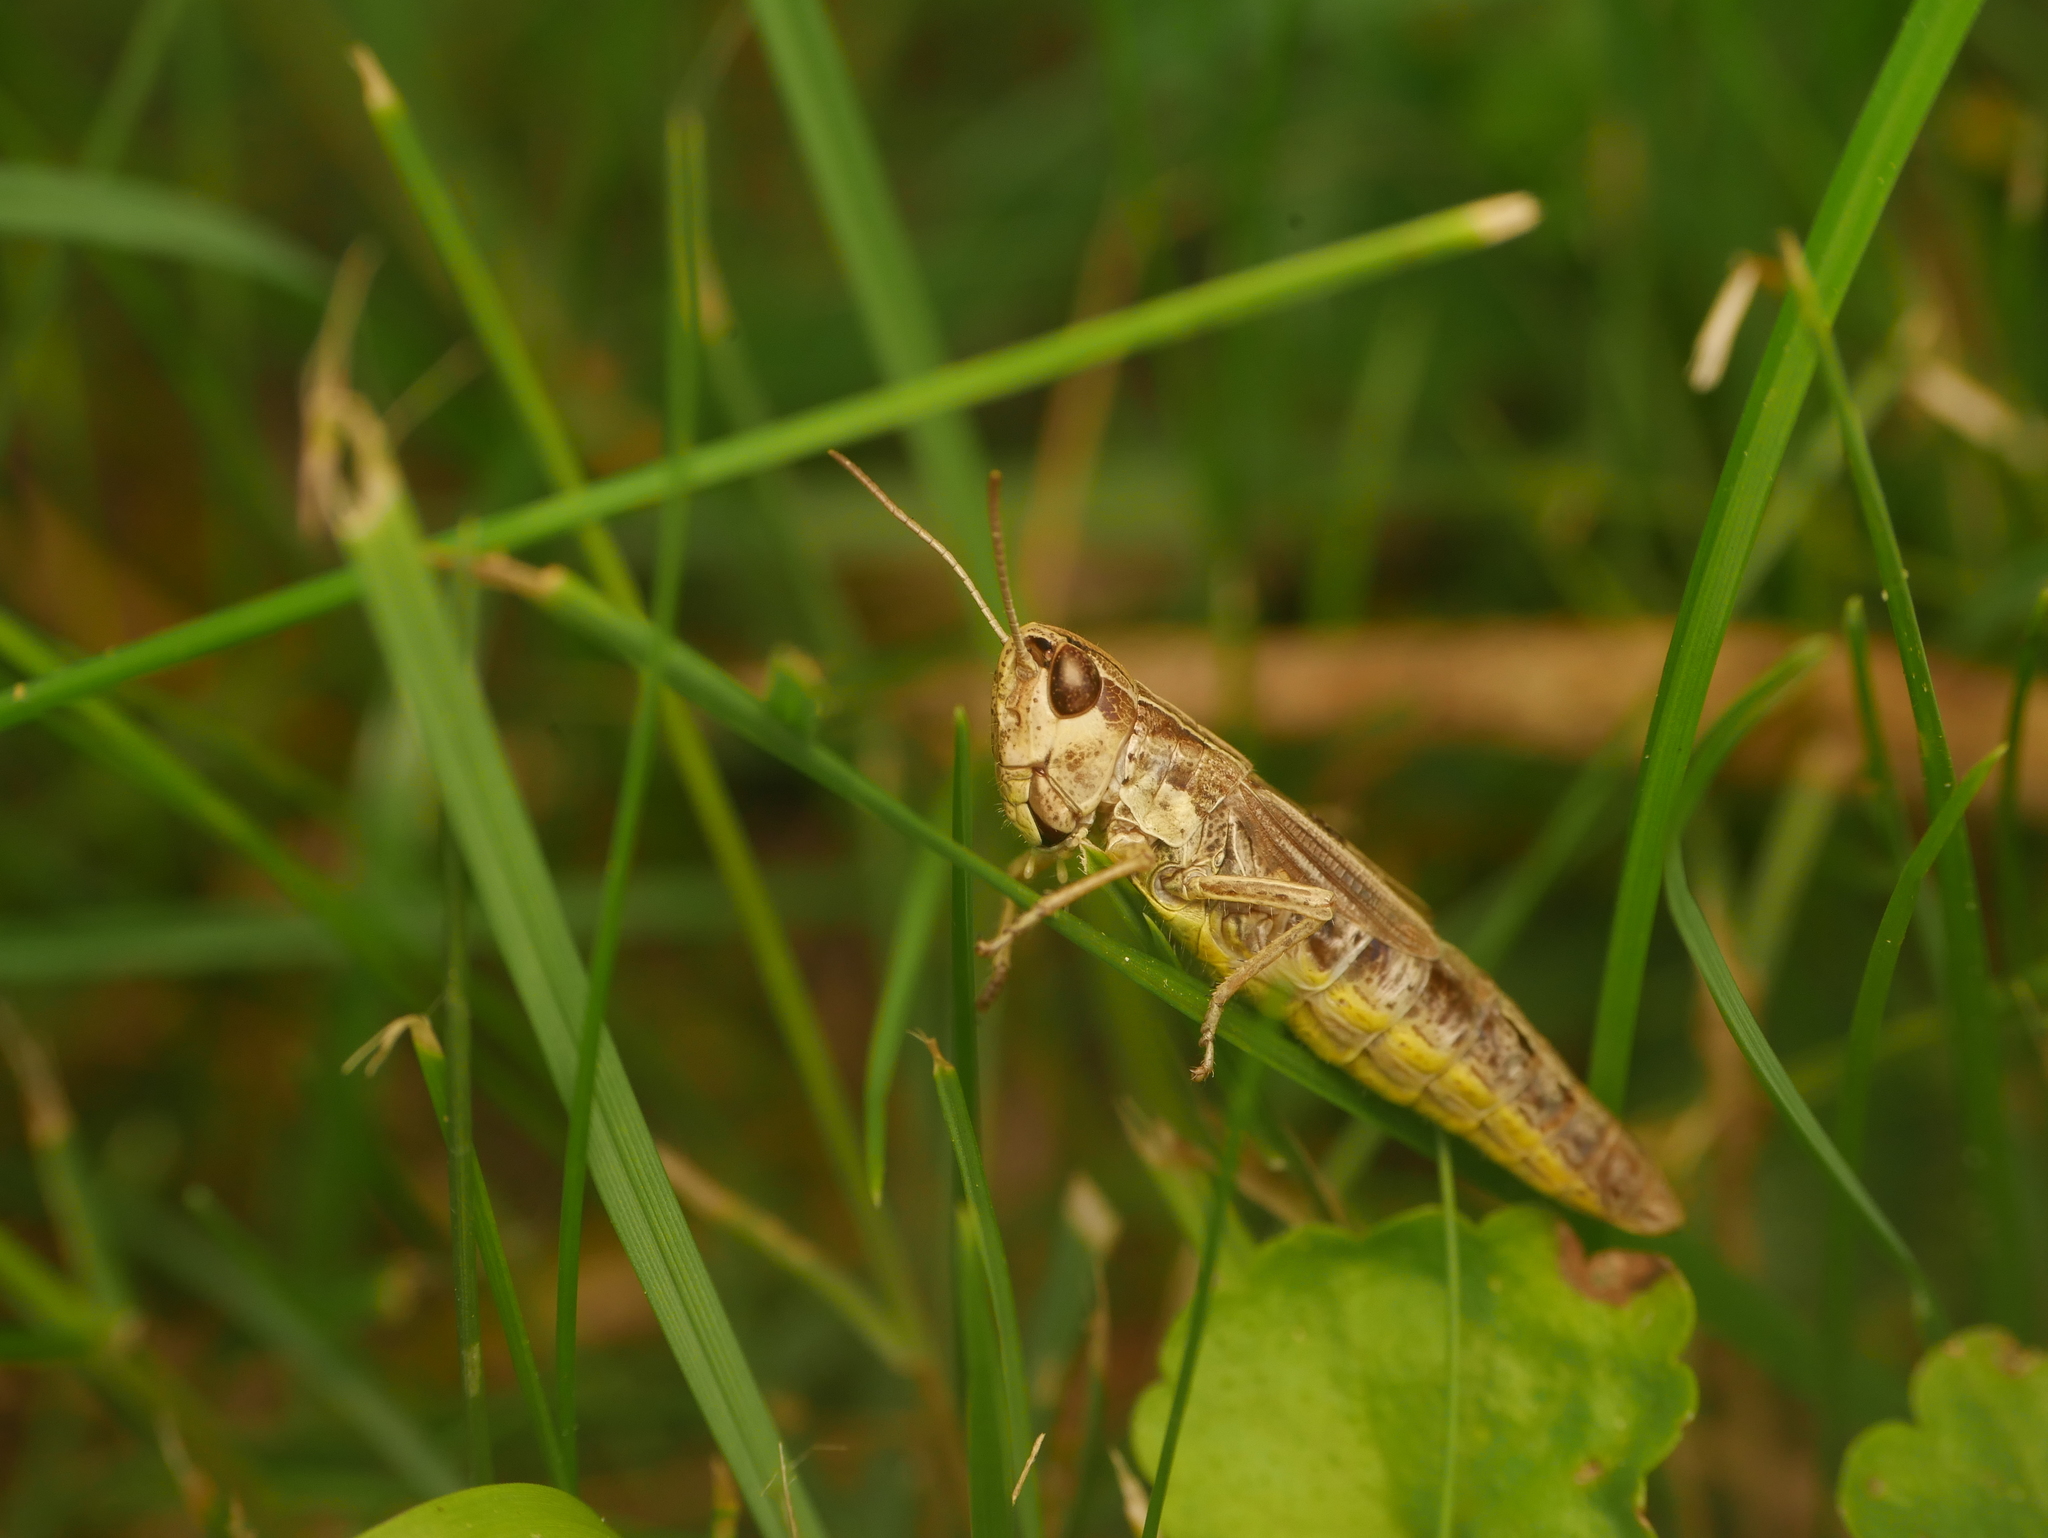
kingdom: Animalia
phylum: Arthropoda
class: Insecta
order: Orthoptera
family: Acrididae
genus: Pseudochorthippus
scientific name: Pseudochorthippus parallelus
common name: Meadow grasshopper
